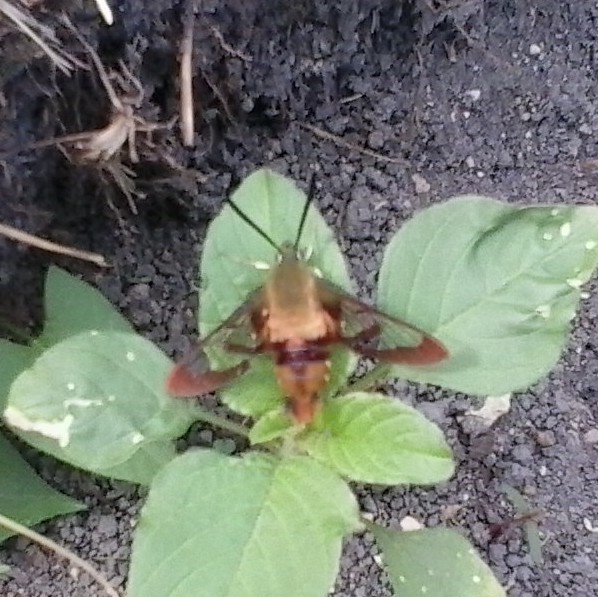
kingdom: Animalia
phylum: Arthropoda
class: Insecta
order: Lepidoptera
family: Sphingidae
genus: Hemaris
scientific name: Hemaris thysbe
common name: Common clear-wing
